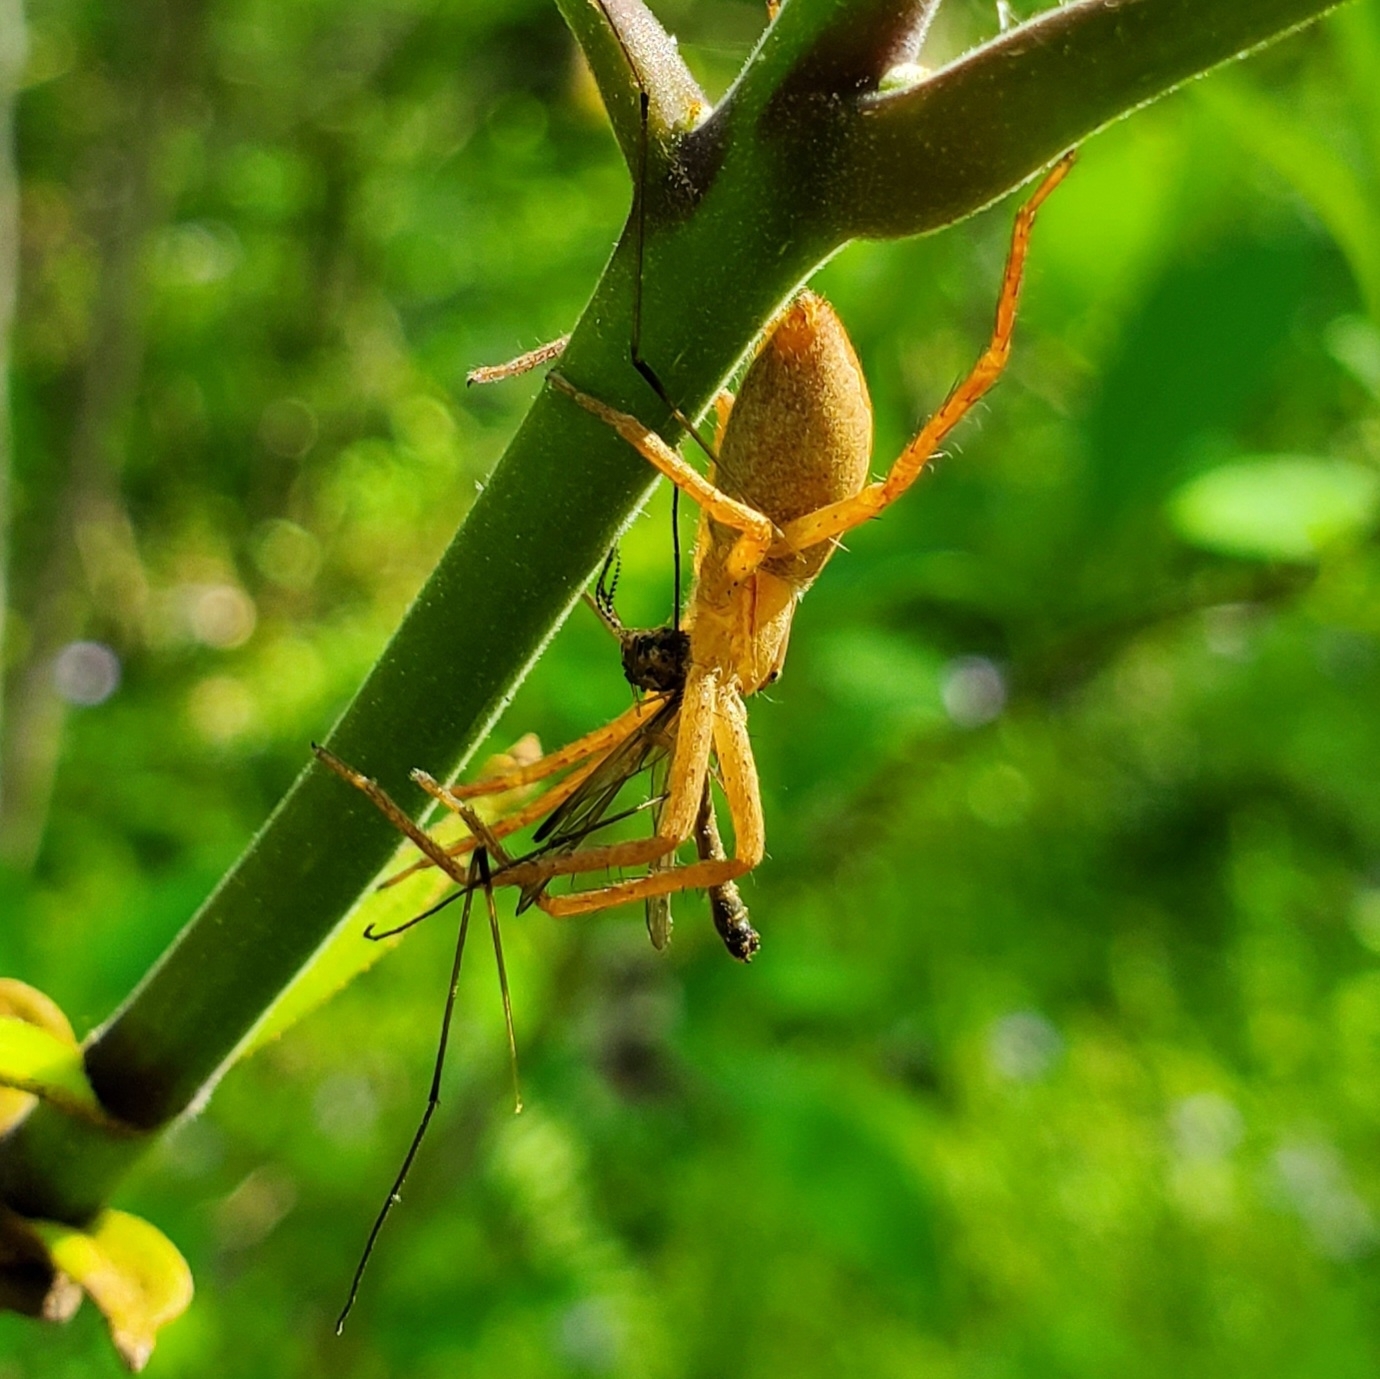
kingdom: Animalia
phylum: Arthropoda
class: Arachnida
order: Araneae
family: Pisauridae
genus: Pisaurina
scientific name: Pisaurina mira
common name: American nursery web spider
